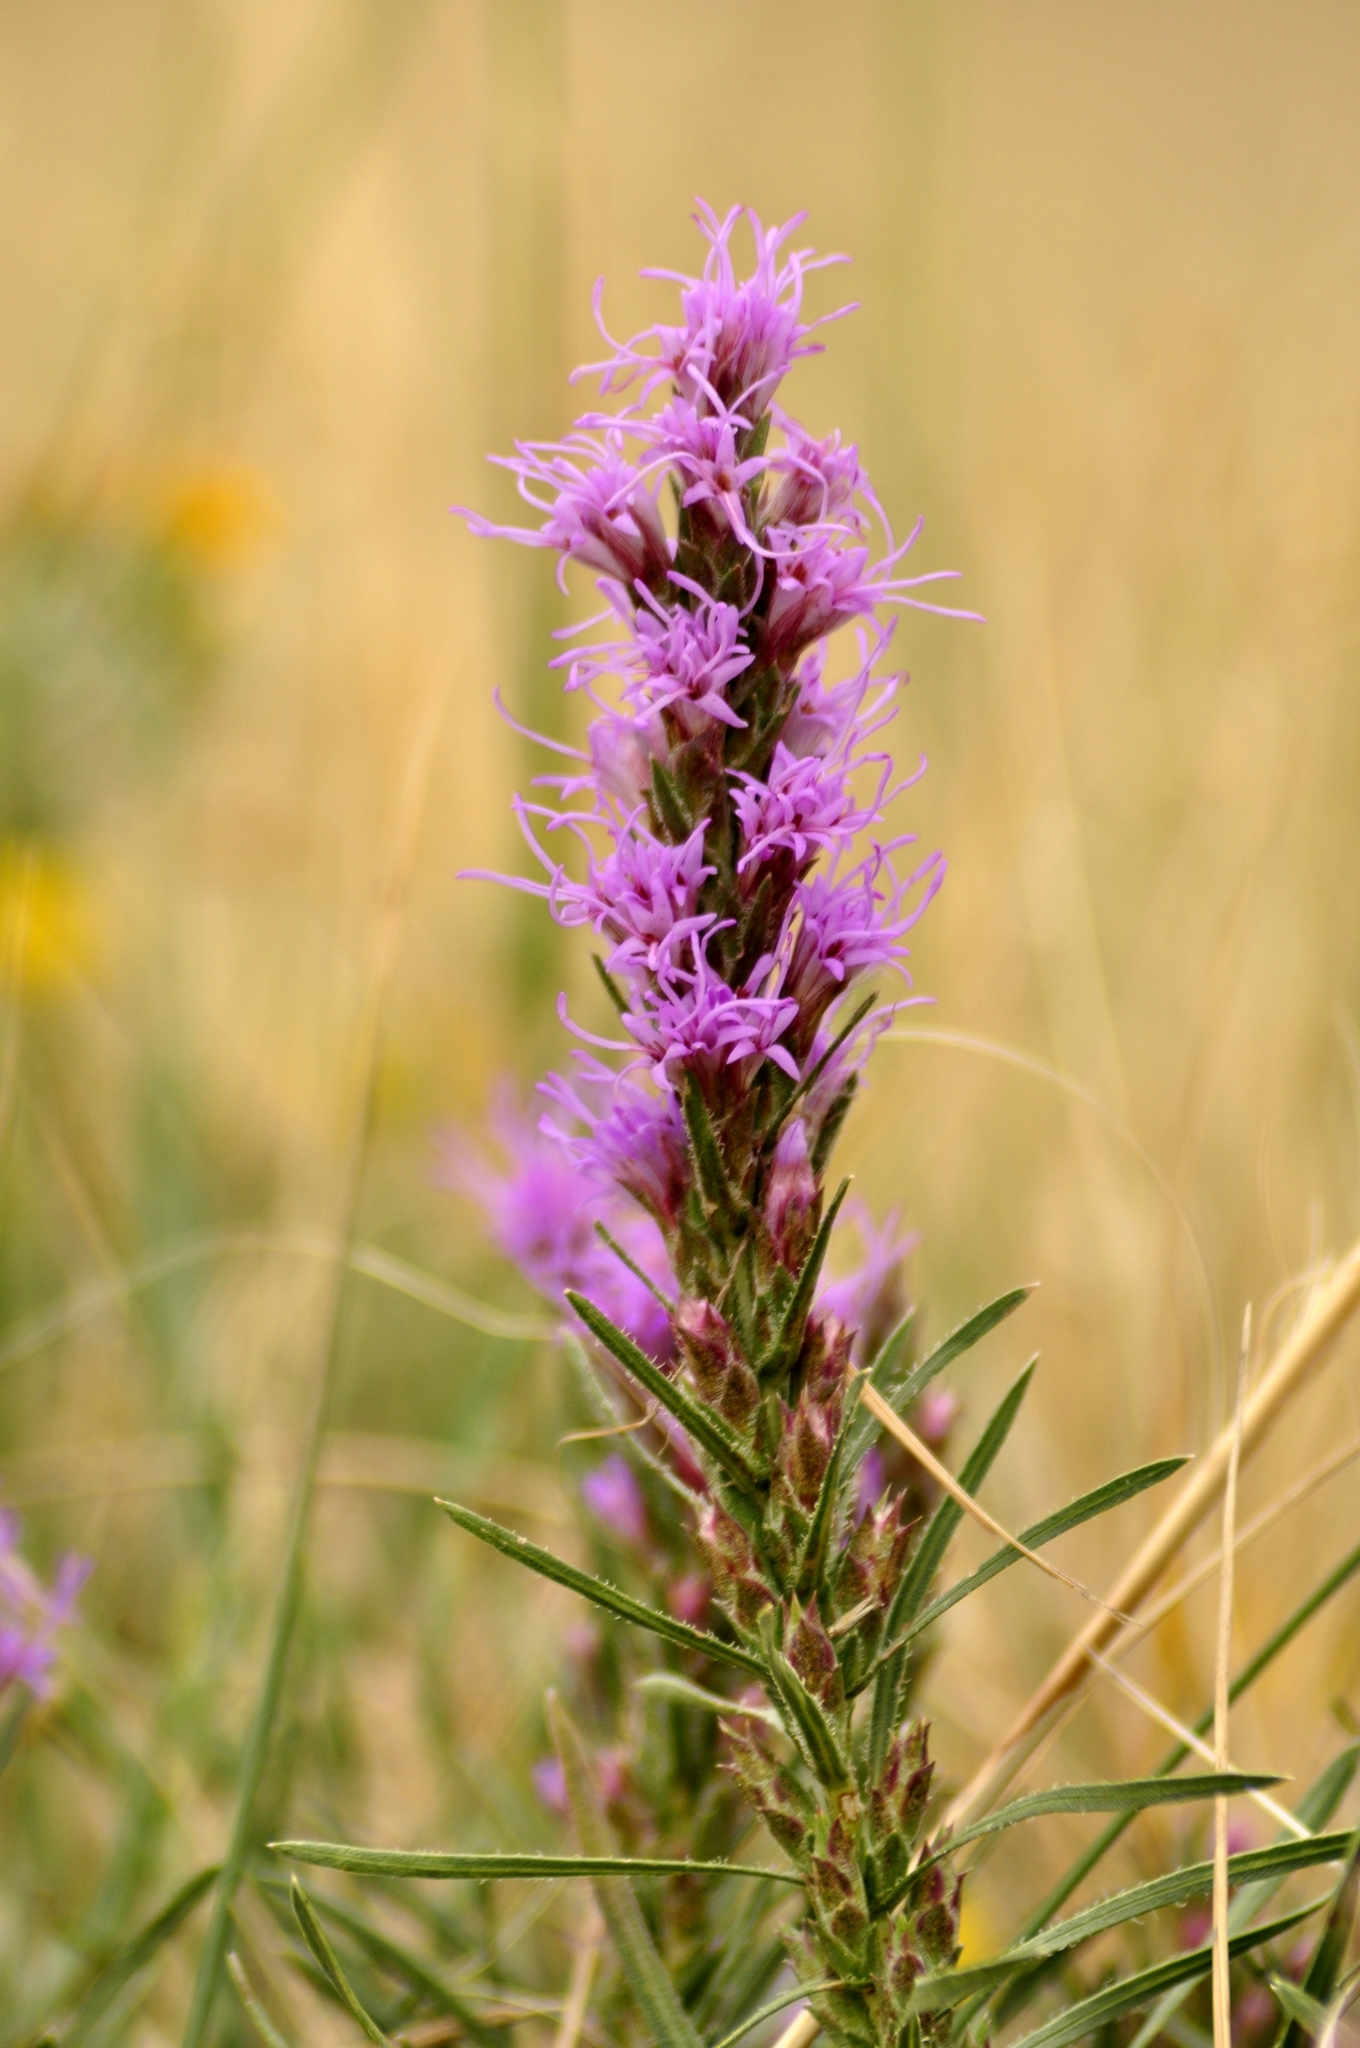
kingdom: Plantae
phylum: Tracheophyta
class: Magnoliopsida
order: Asterales
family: Asteraceae
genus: Liatris
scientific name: Liatris punctata
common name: Dotted gayfeather
